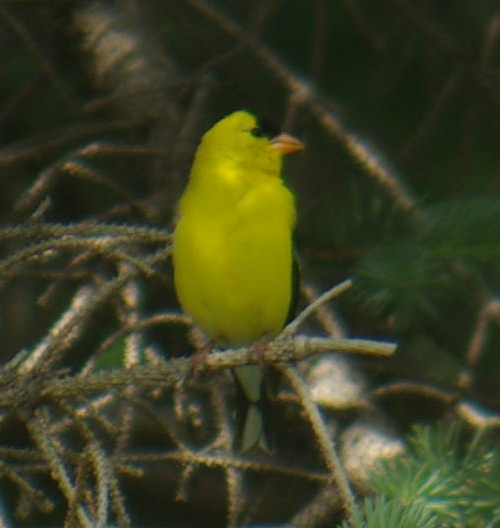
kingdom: Animalia
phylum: Chordata
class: Aves
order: Passeriformes
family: Fringillidae
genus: Spinus
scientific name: Spinus tristis
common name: American goldfinch
